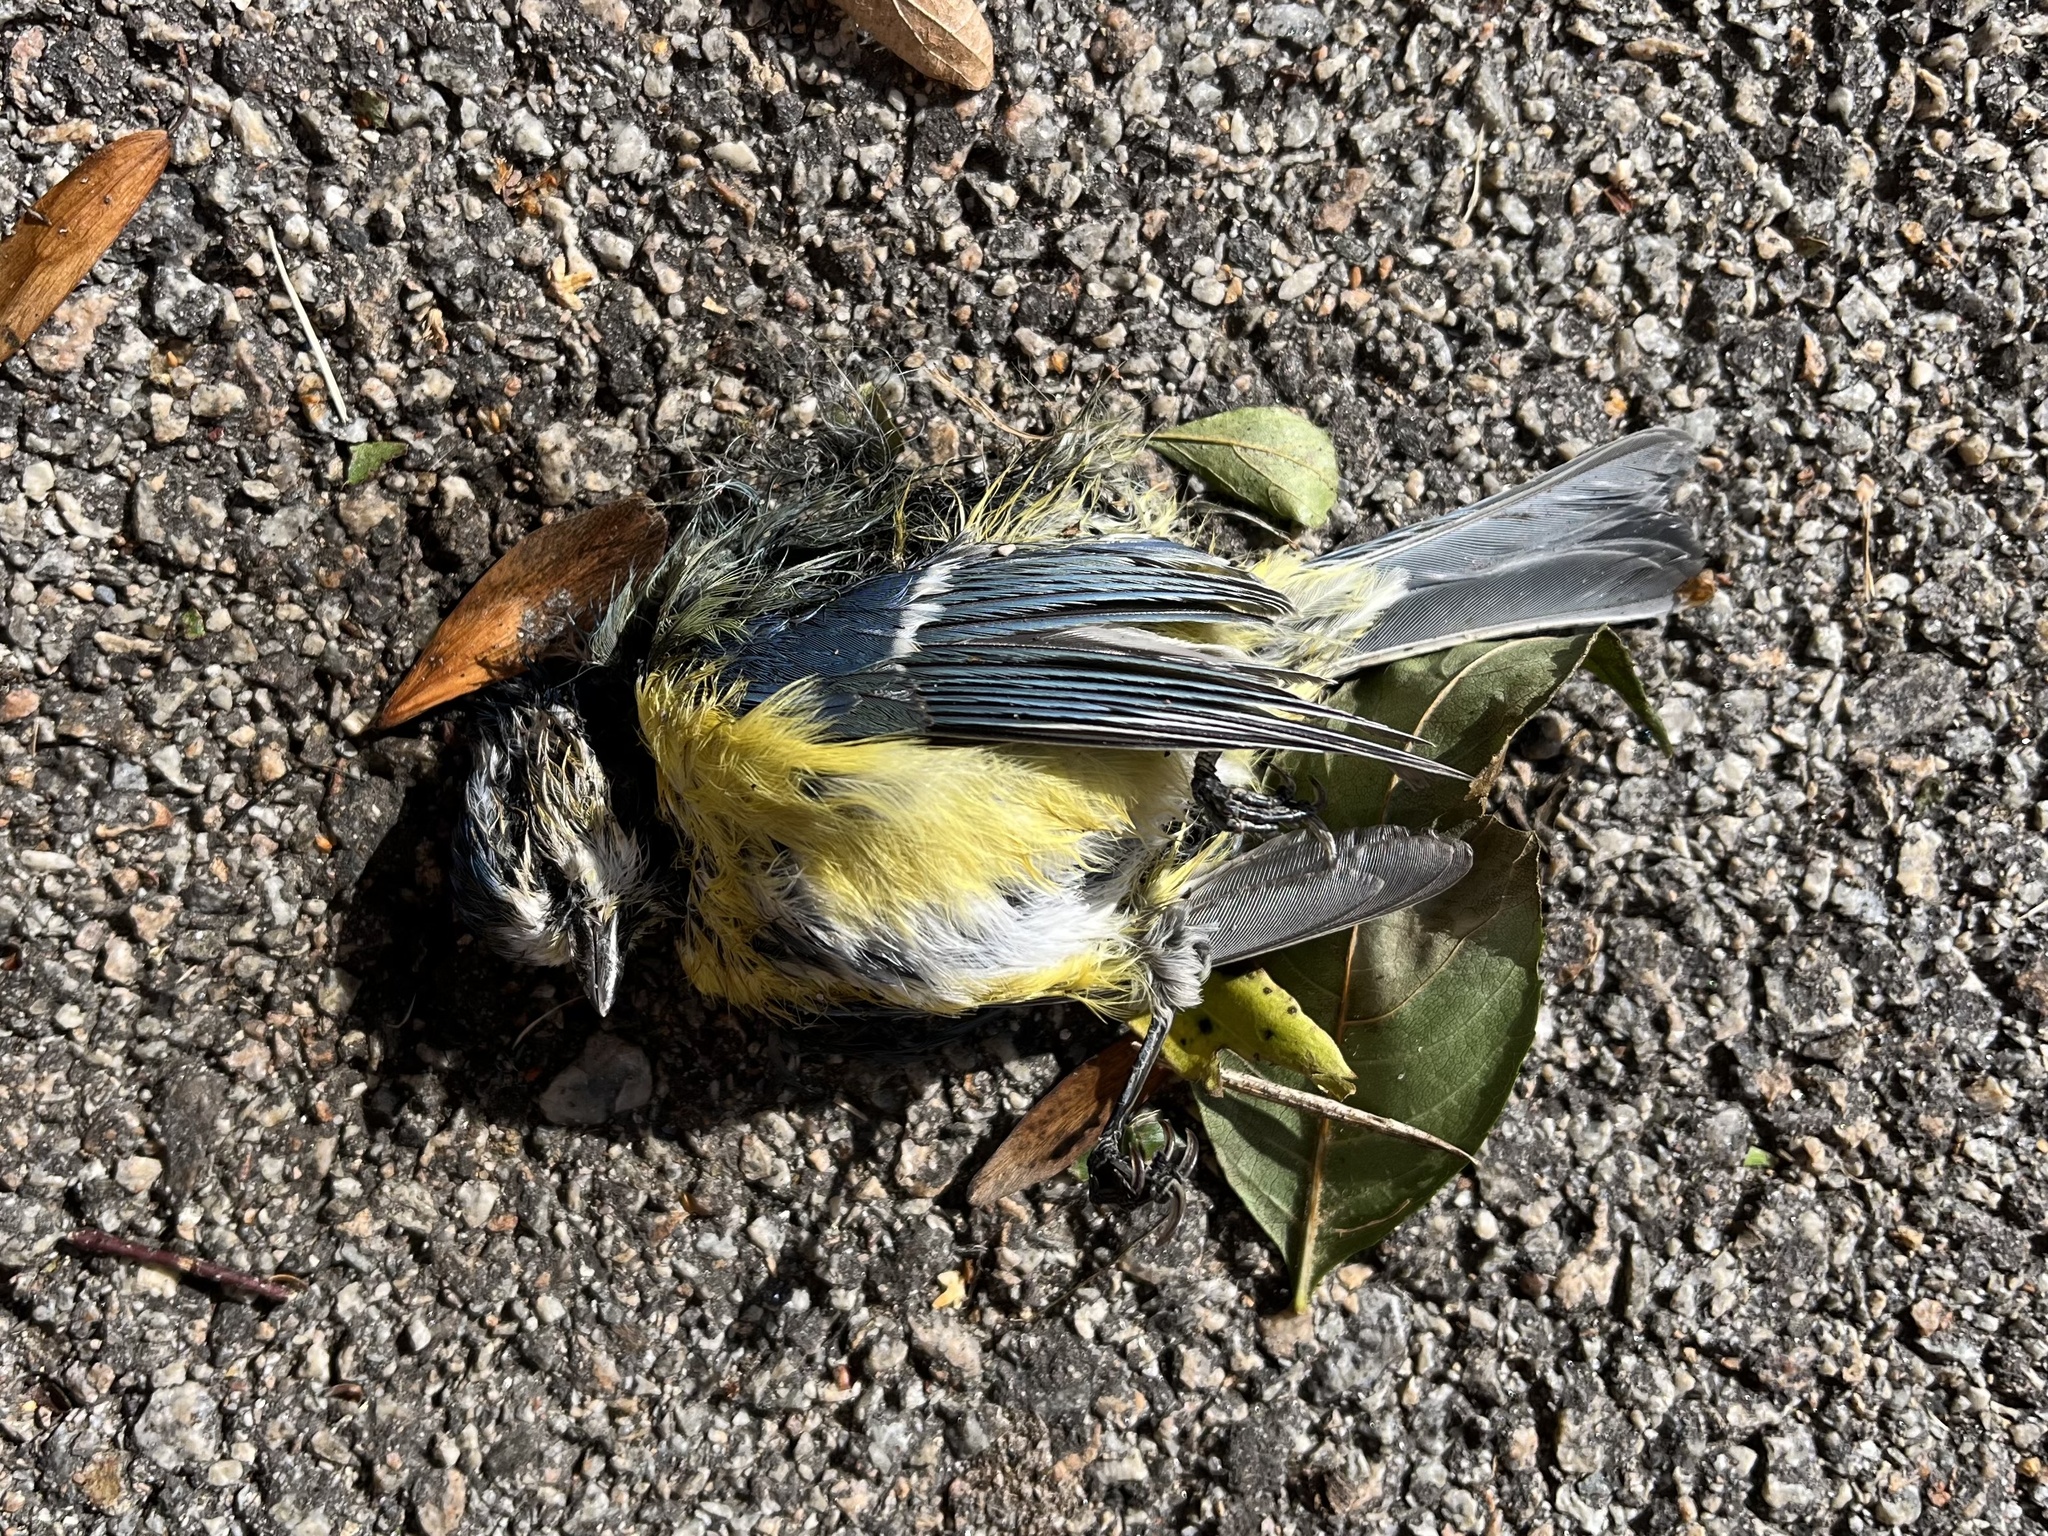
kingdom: Animalia
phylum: Chordata
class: Aves
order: Passeriformes
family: Paridae
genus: Cyanistes
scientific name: Cyanistes caeruleus
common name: Eurasian blue tit
